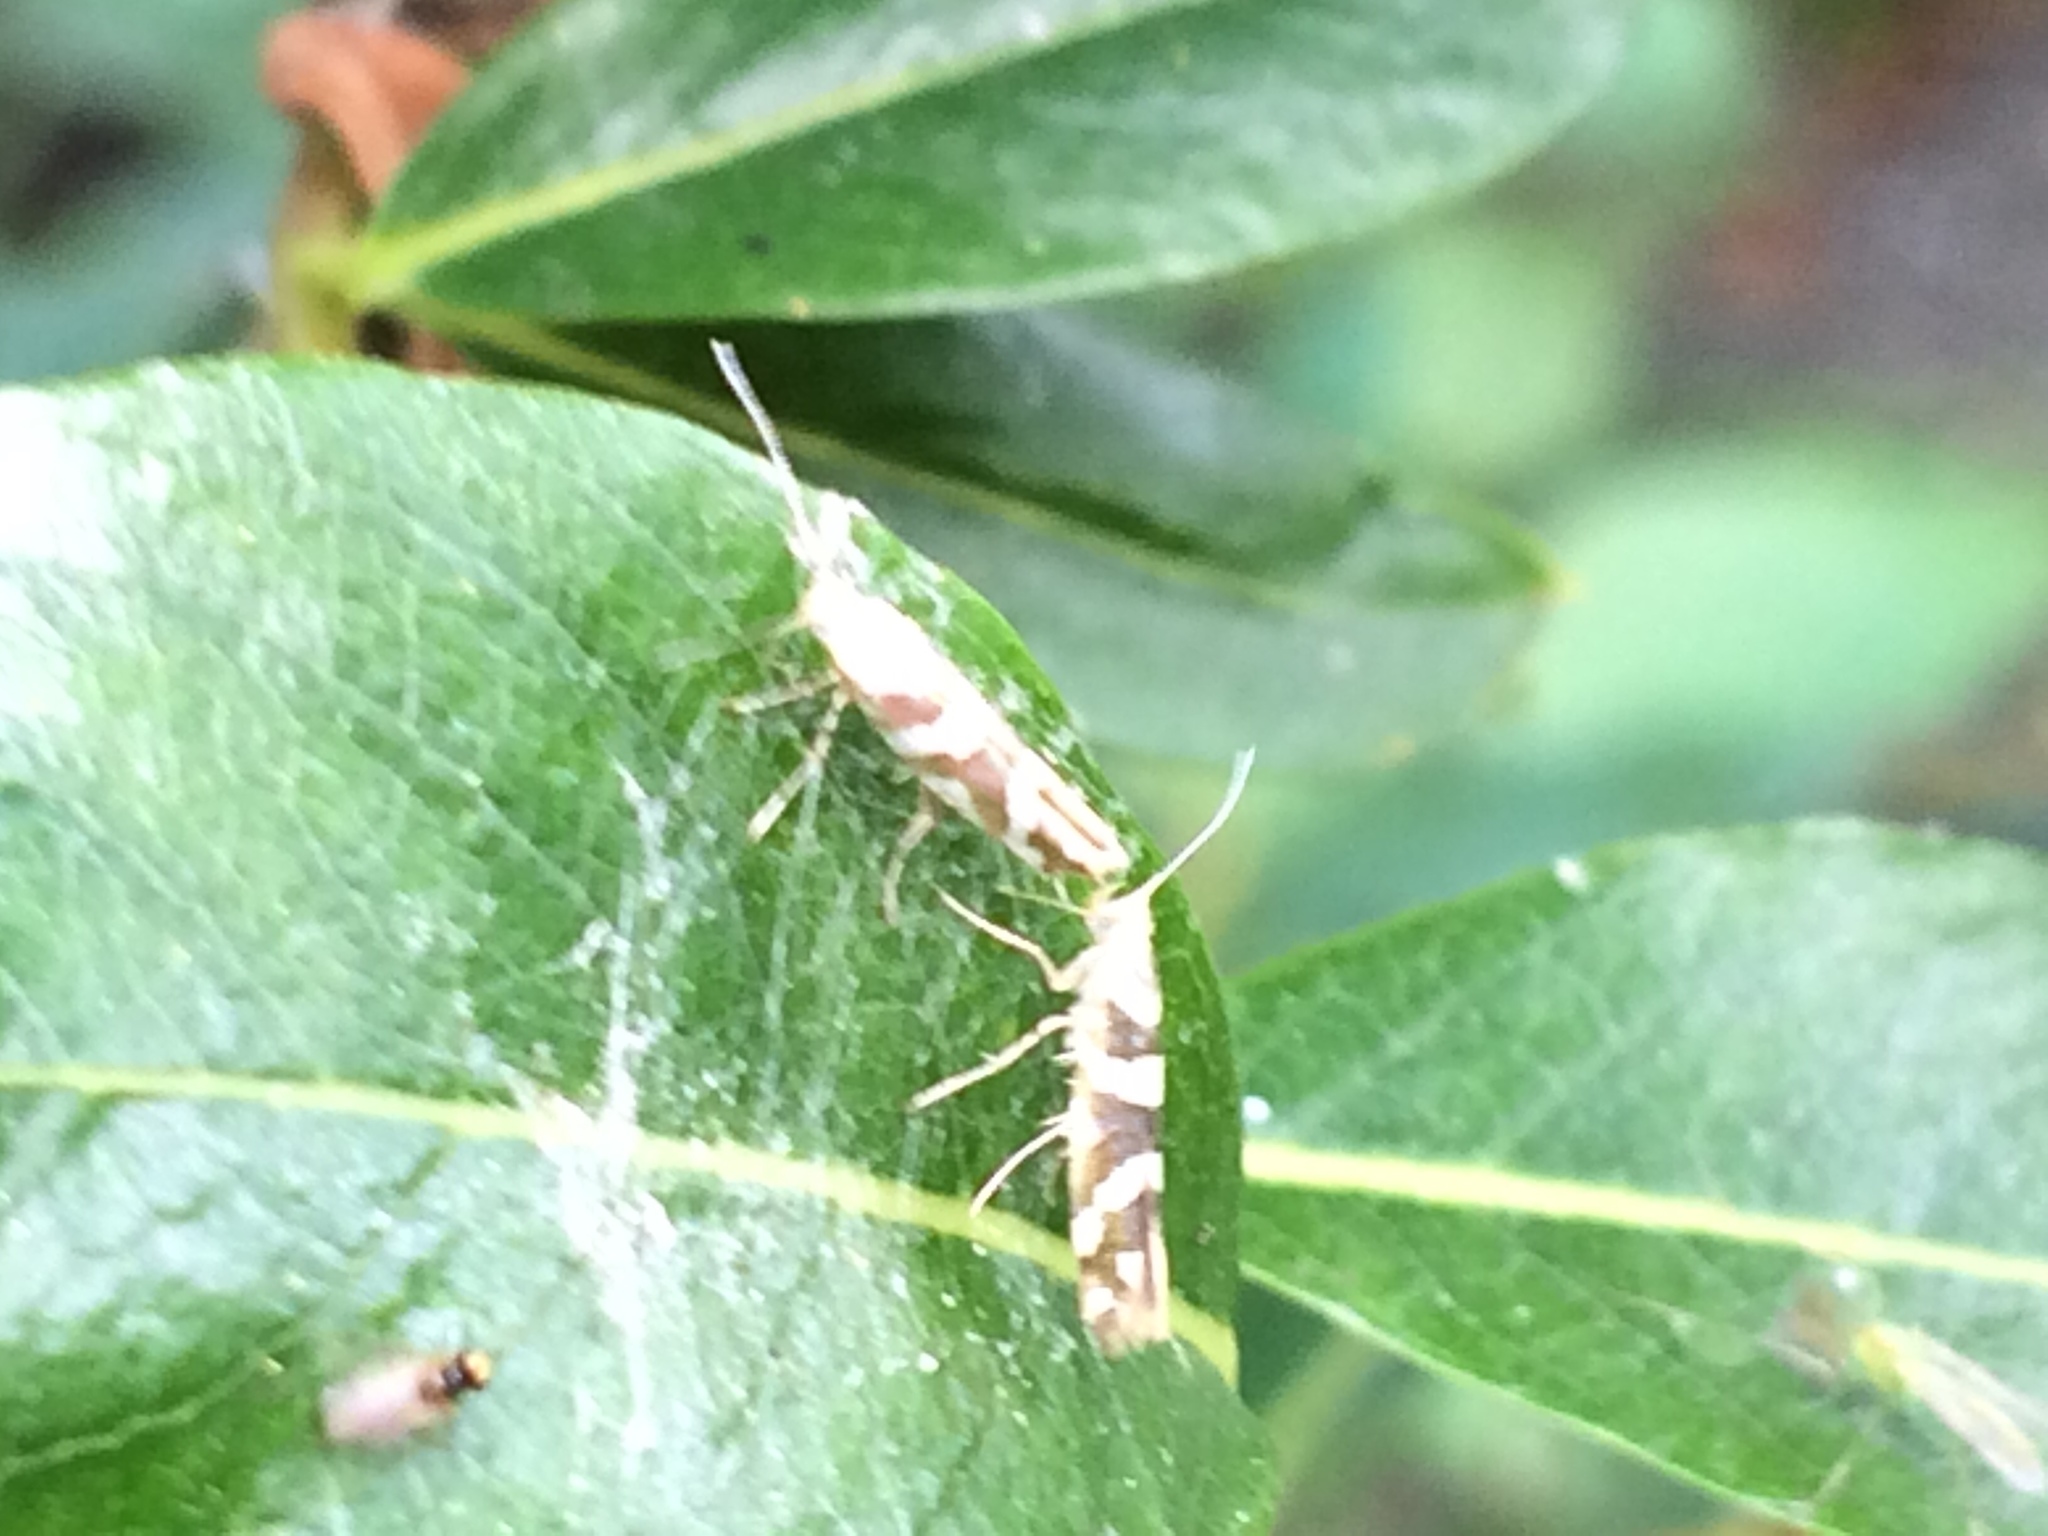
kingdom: Animalia
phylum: Arthropoda
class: Insecta
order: Lepidoptera
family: Argyresthiidae
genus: Argyresthia
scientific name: Argyresthia brockeella
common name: Gold-ribbon argent
